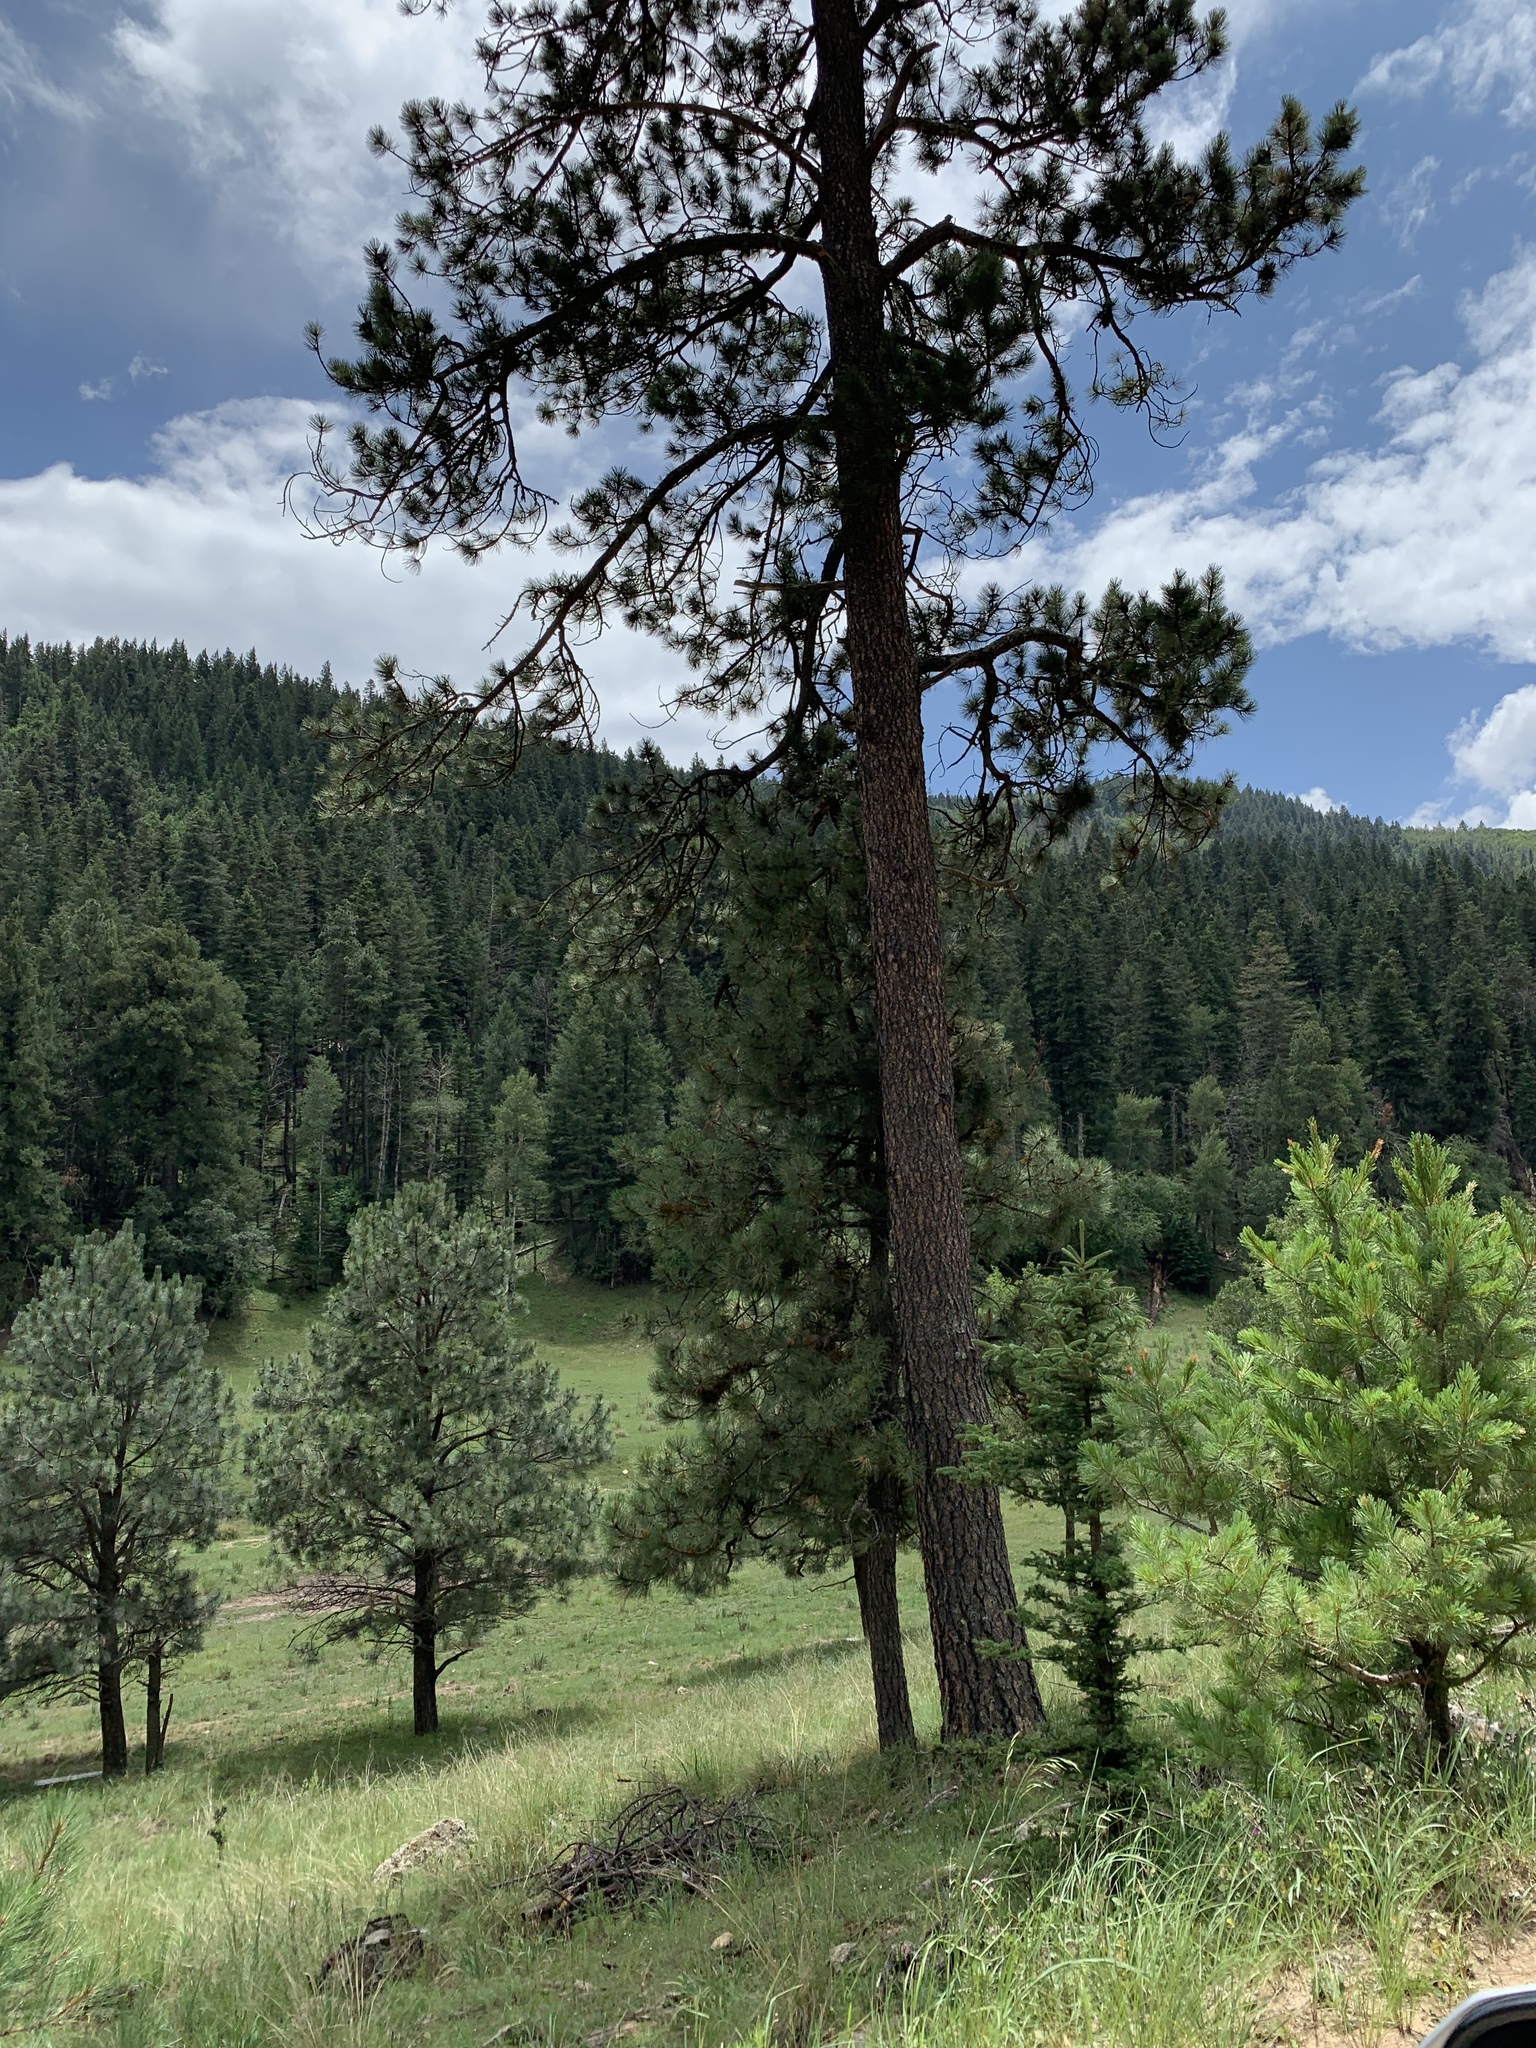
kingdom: Plantae
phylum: Tracheophyta
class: Pinopsida
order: Pinales
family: Pinaceae
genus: Pinus
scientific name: Pinus ponderosa
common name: Western yellow-pine
